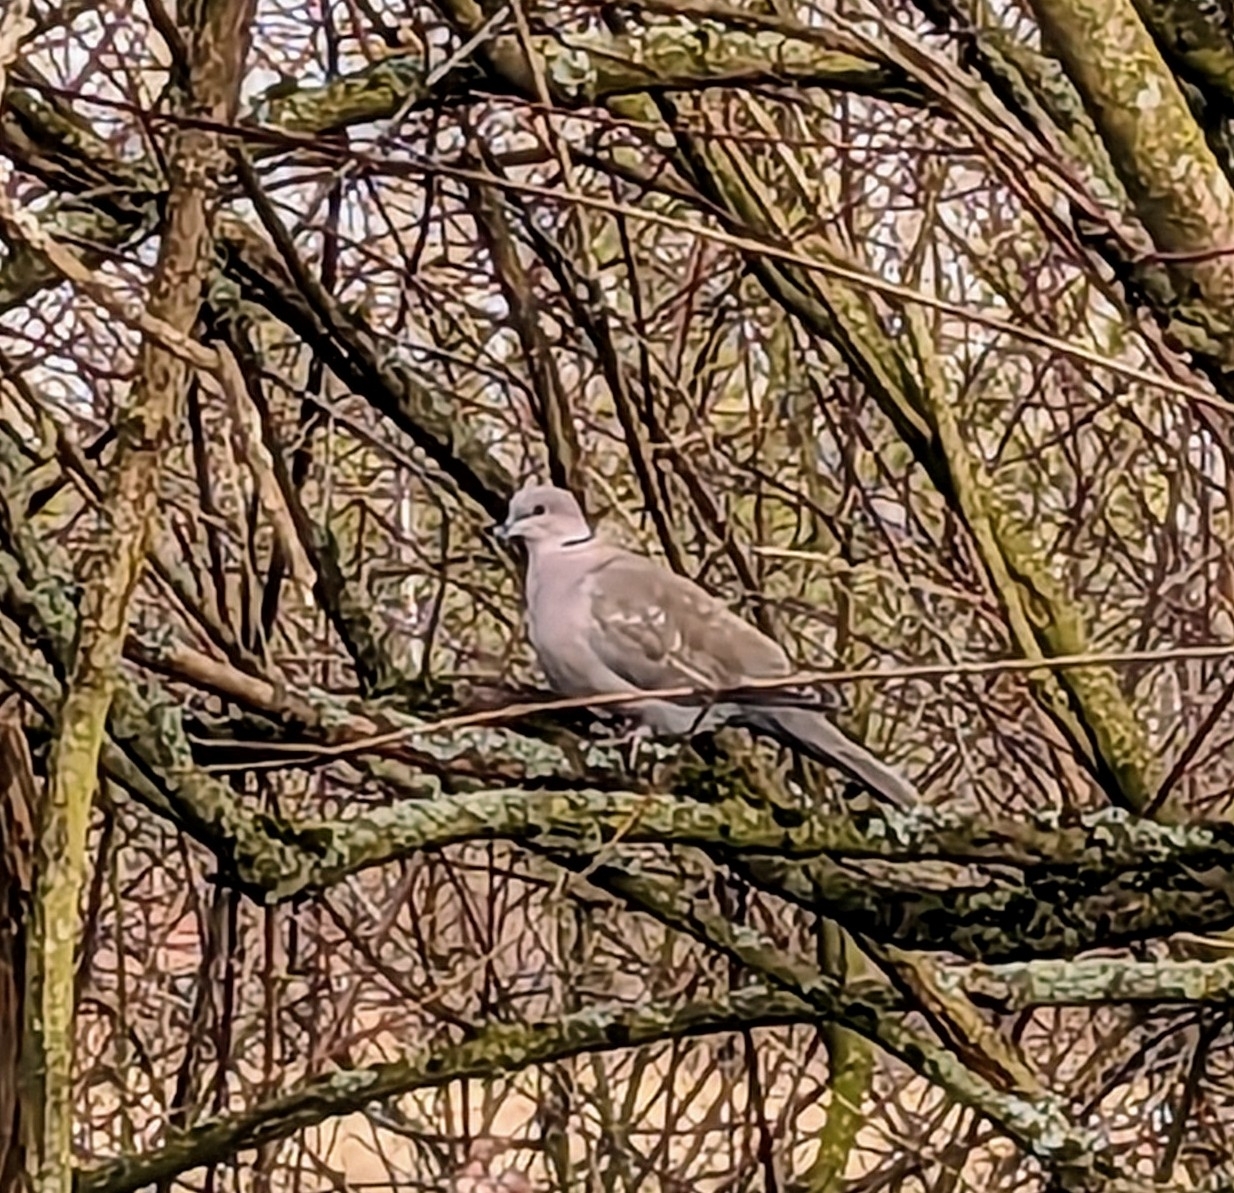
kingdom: Animalia
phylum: Chordata
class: Aves
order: Columbiformes
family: Columbidae
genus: Streptopelia
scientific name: Streptopelia decaocto
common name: Eurasian collared dove
